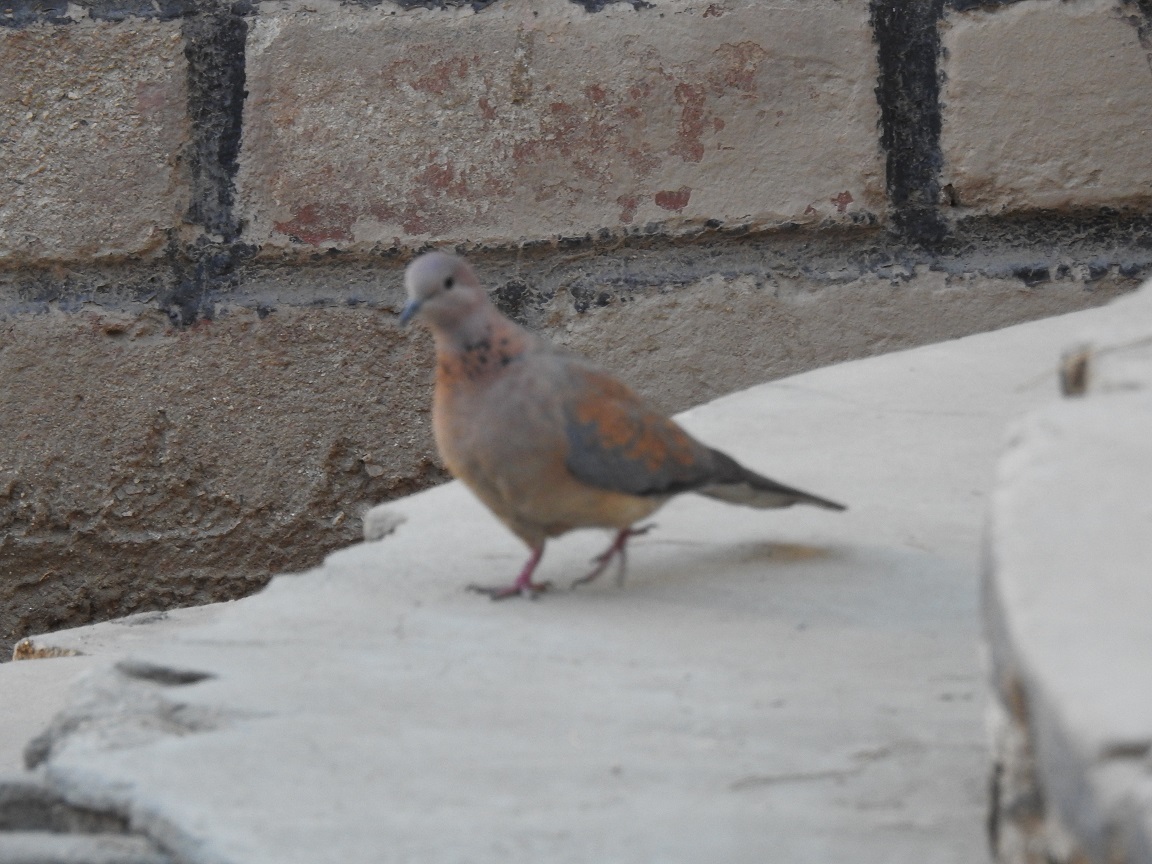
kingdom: Animalia
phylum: Chordata
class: Aves
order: Columbiformes
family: Columbidae
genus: Spilopelia
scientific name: Spilopelia senegalensis
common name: Laughing dove
